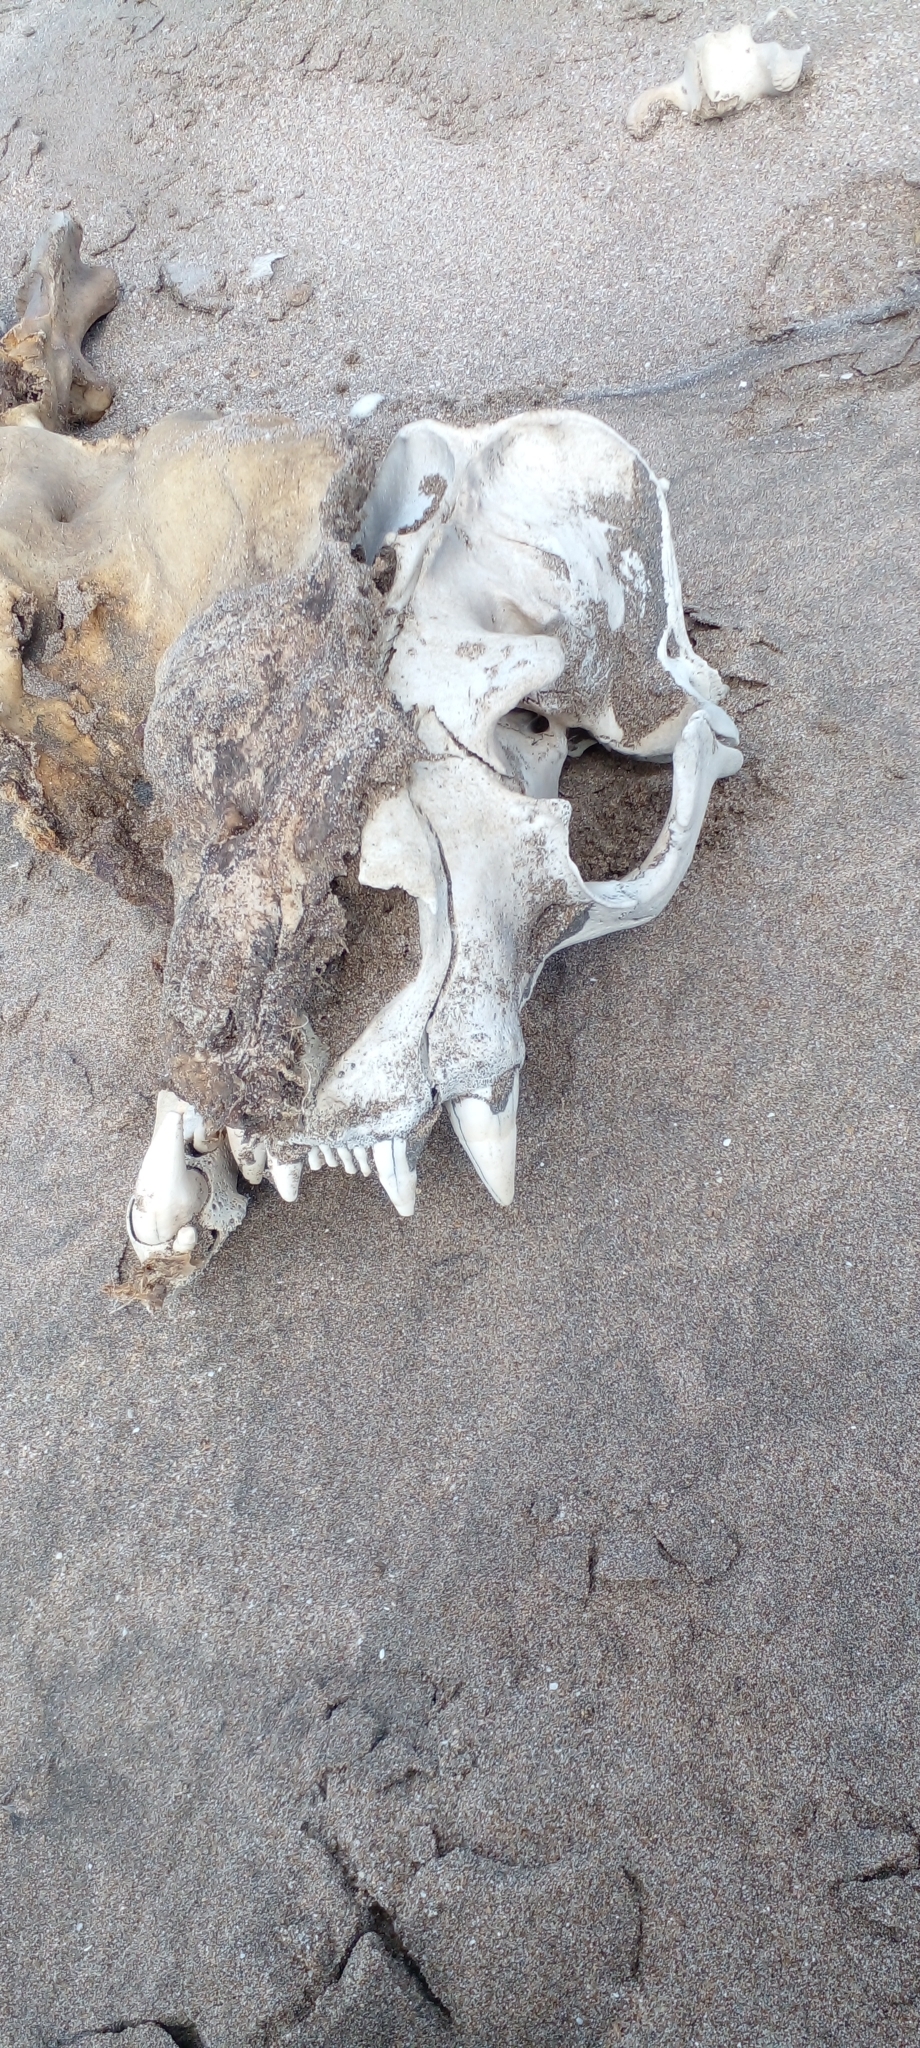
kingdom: Animalia
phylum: Chordata
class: Mammalia
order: Carnivora
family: Otariidae
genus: Otaria
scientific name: Otaria byronia
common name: South american sea lion
